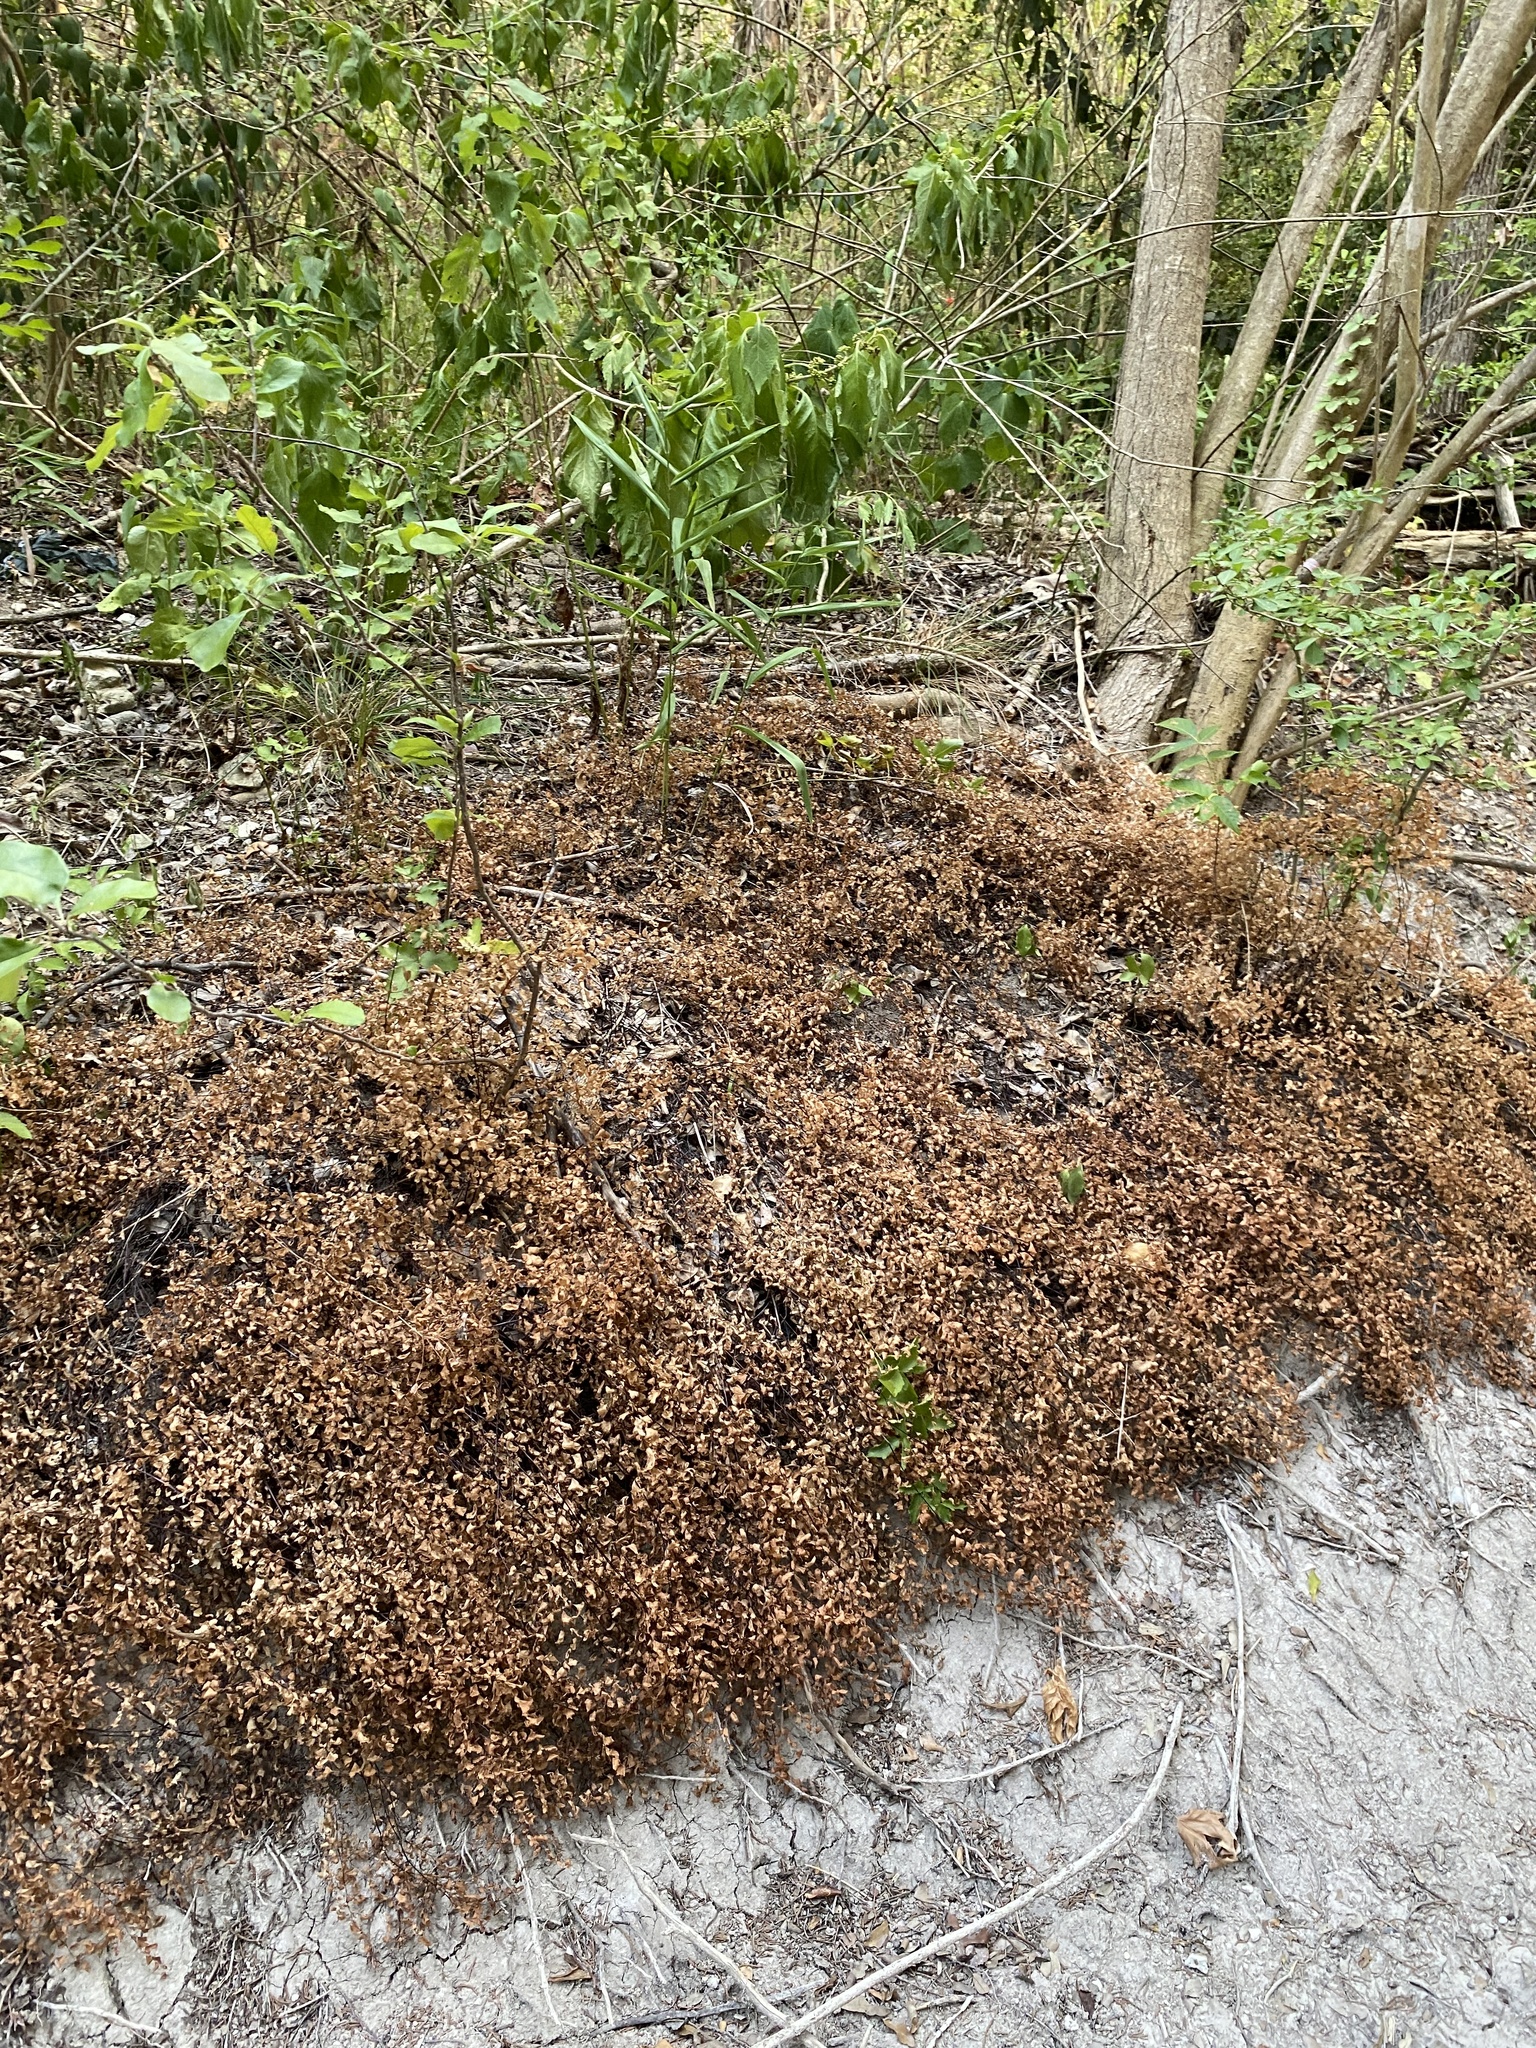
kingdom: Plantae
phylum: Tracheophyta
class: Polypodiopsida
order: Polypodiales
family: Pteridaceae
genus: Adiantum
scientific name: Adiantum capillus-veneris
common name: Maidenhair fern
